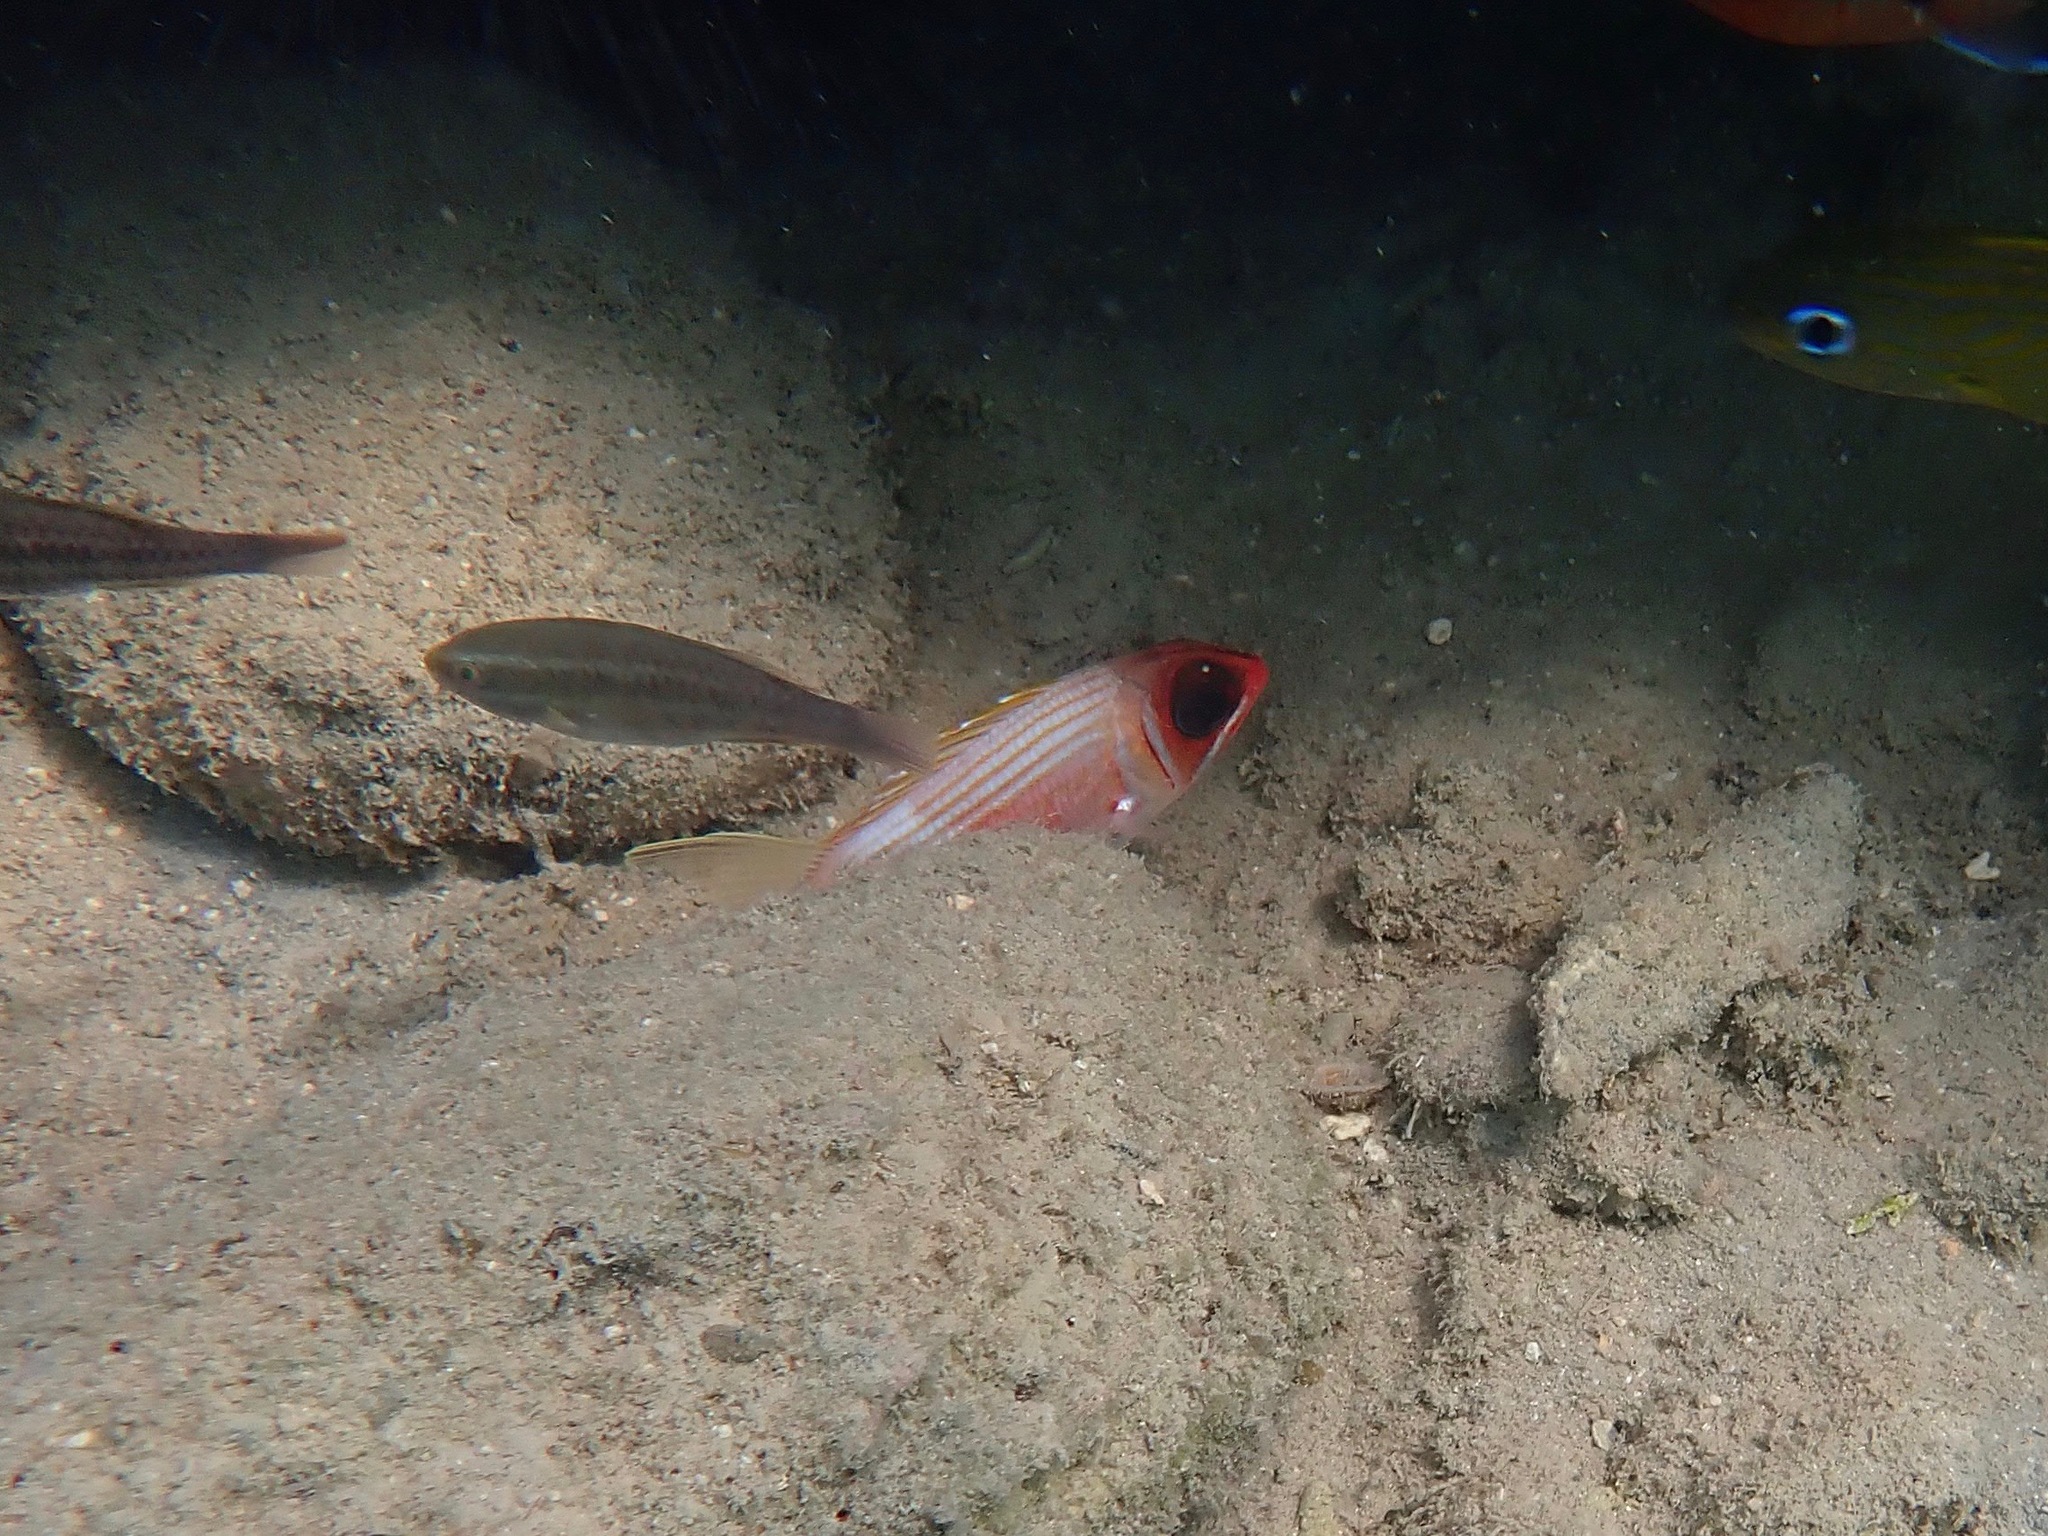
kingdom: Animalia
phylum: Chordata
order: Beryciformes
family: Holocentridae
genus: Holocentrus
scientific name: Holocentrus rufus
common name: Longspine squirrelfish
